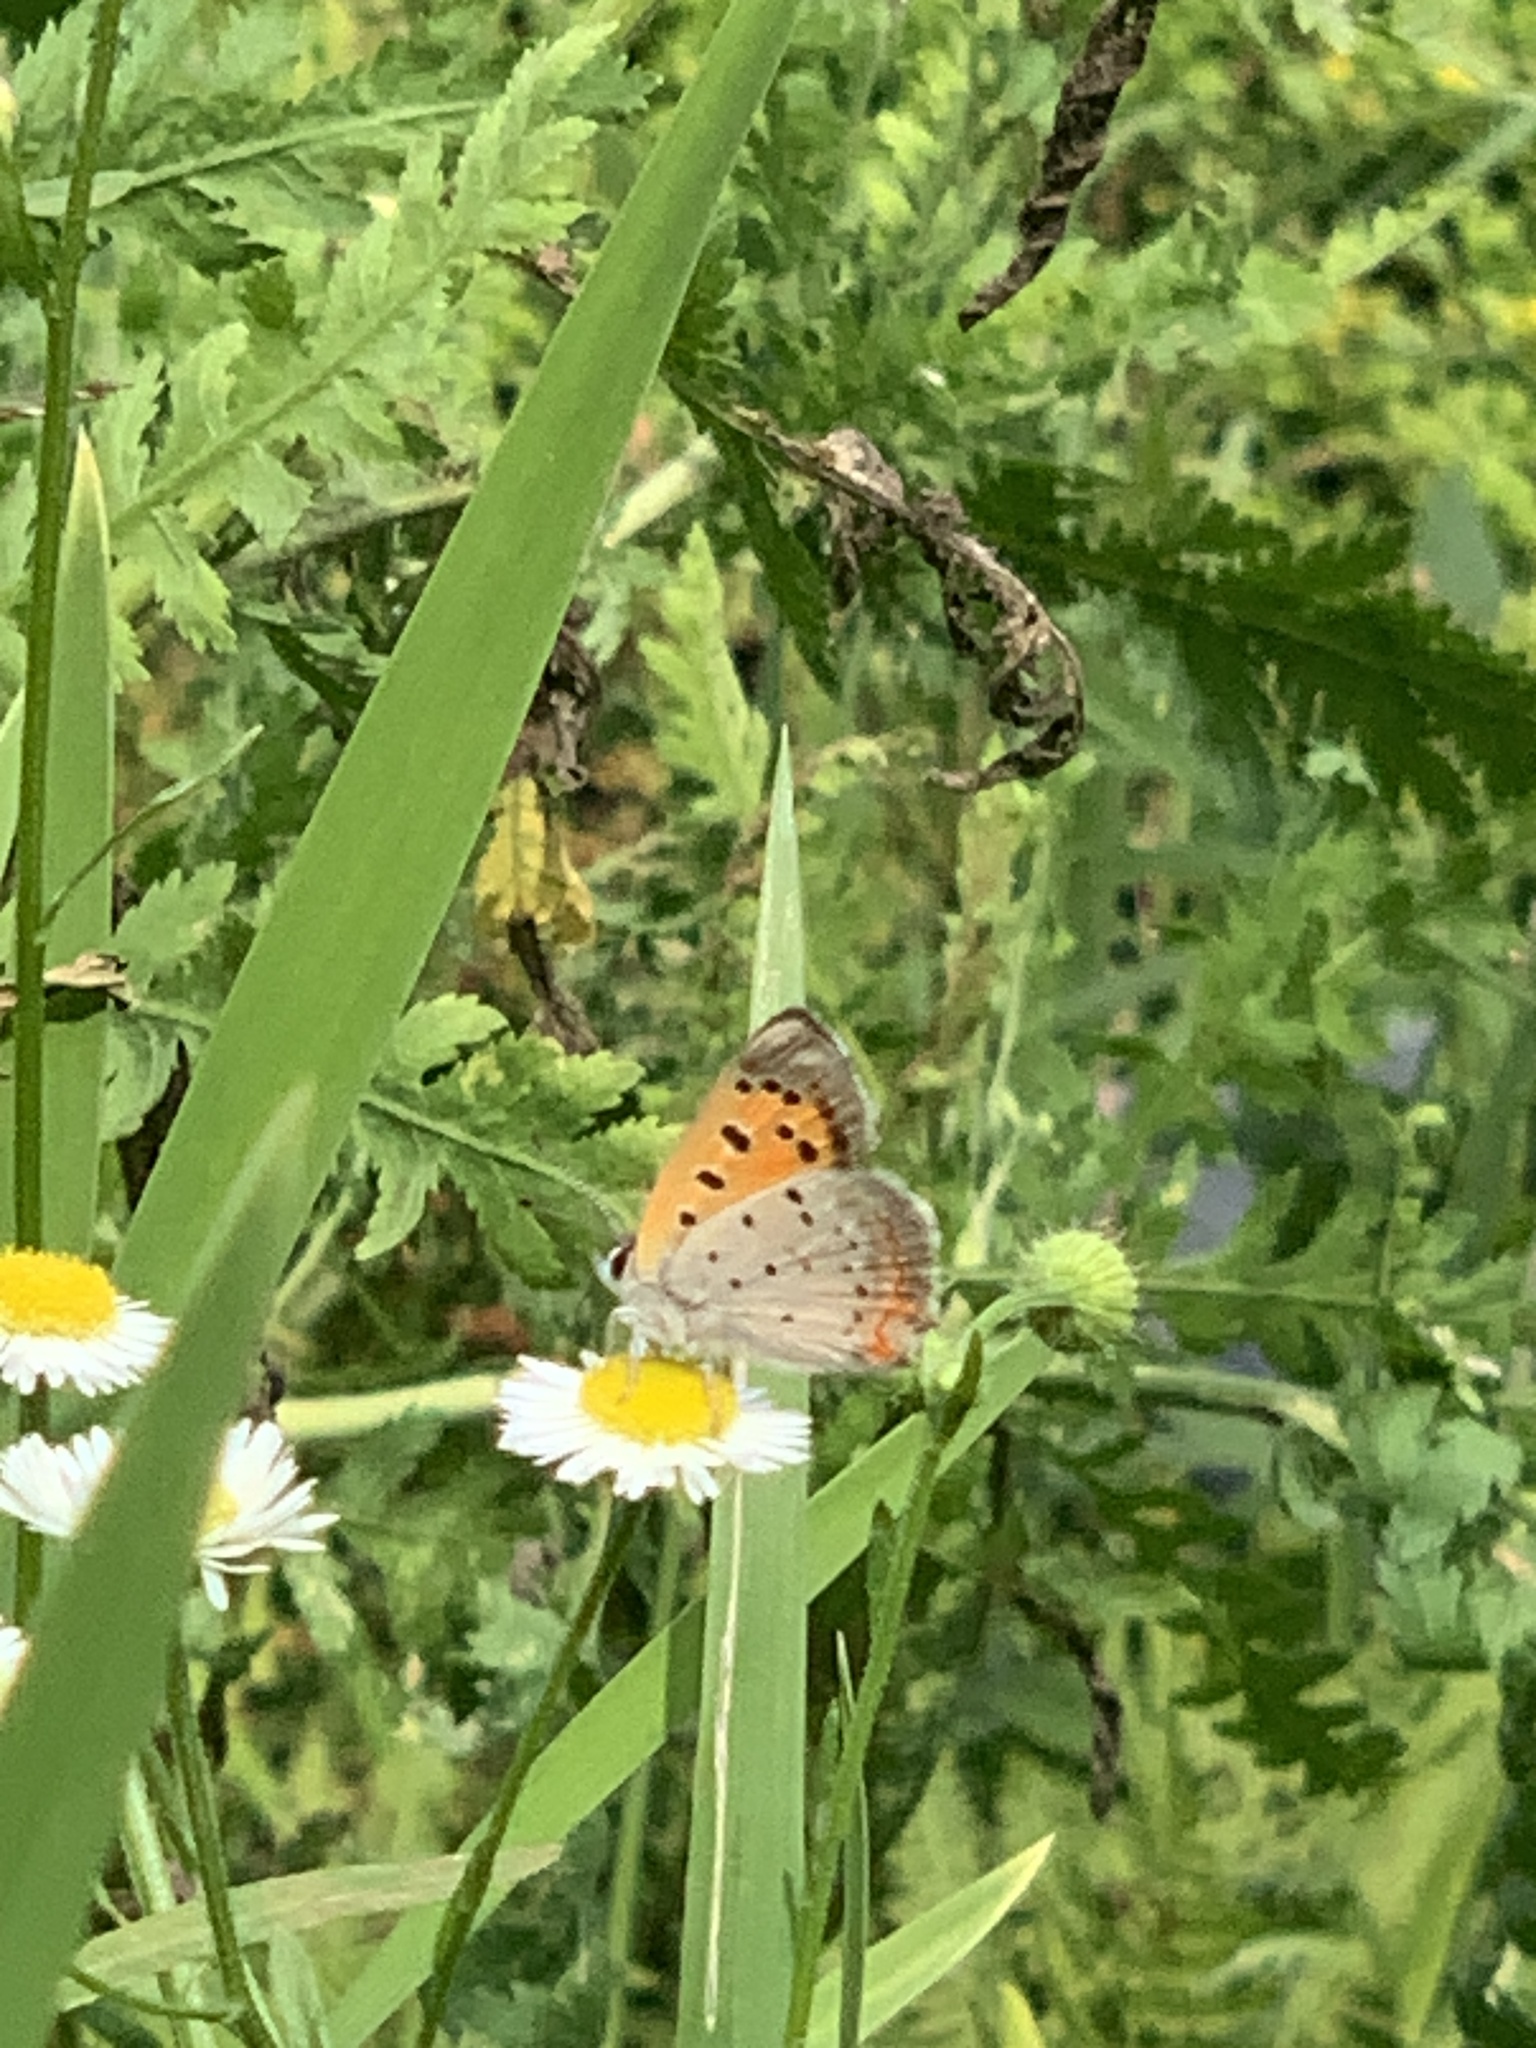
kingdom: Animalia
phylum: Arthropoda
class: Insecta
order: Lepidoptera
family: Lycaenidae
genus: Lycaena
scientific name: Lycaena hypophlaeas
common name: American copper
